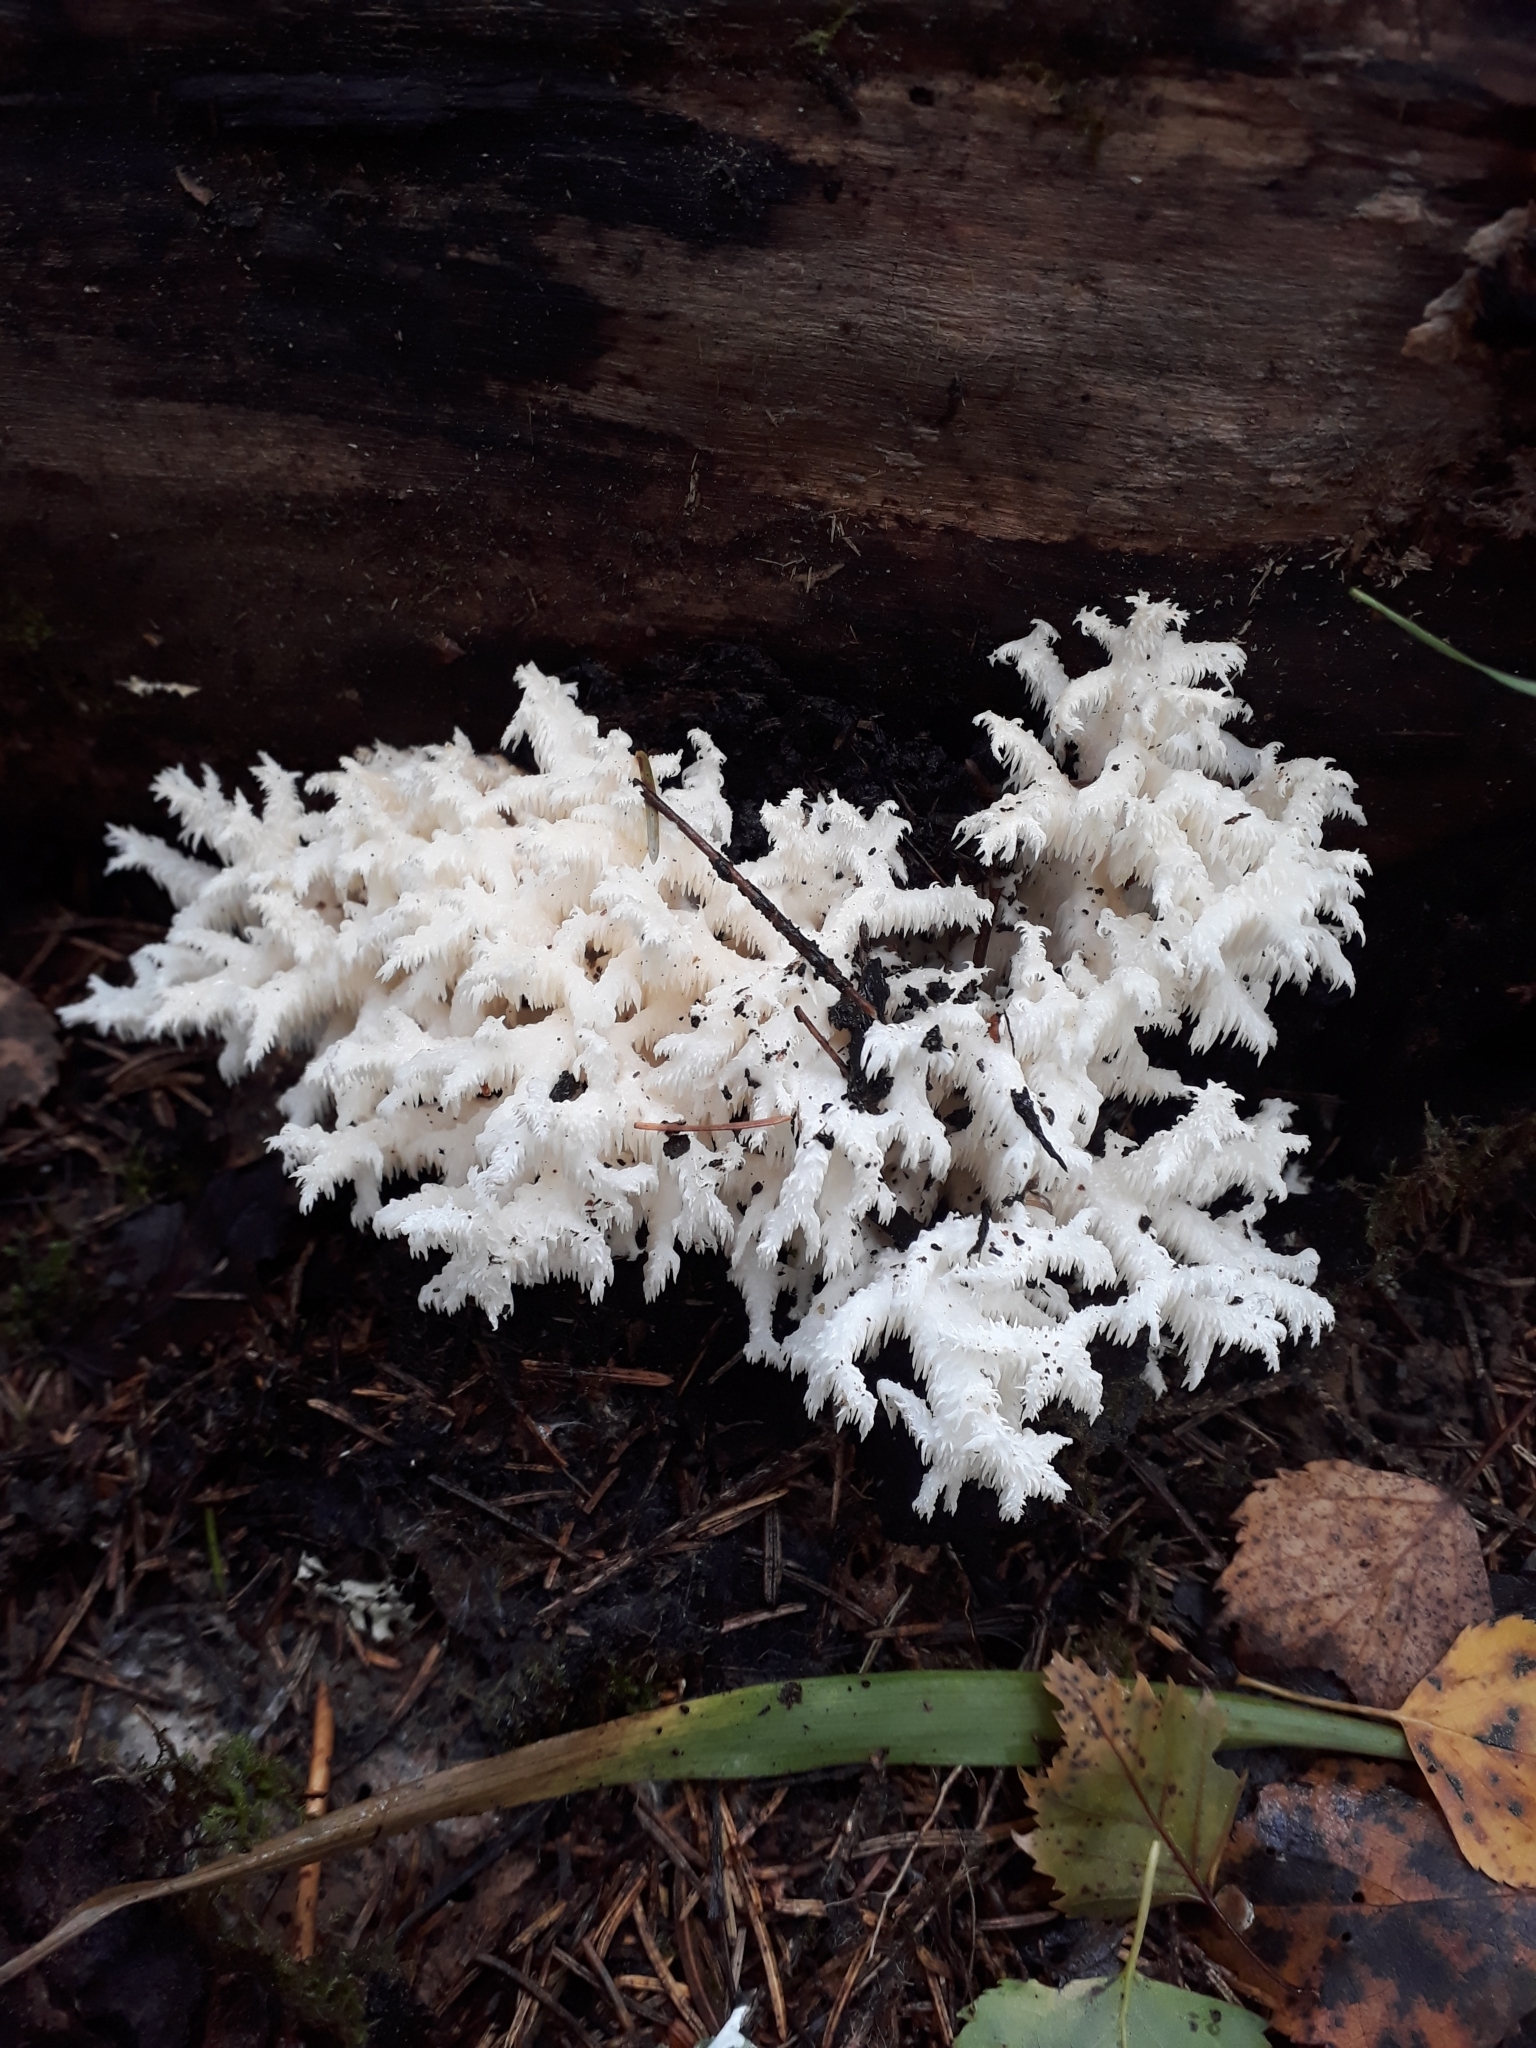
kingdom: Fungi
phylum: Basidiomycota
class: Agaricomycetes
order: Russulales
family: Hericiaceae
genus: Hericium
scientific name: Hericium coralloides
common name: Coral tooth
